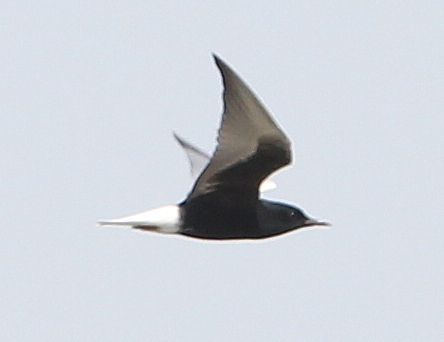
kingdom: Animalia
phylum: Chordata
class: Aves
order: Charadriiformes
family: Laridae
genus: Chlidonias
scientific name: Chlidonias leucopterus
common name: White-winged tern
